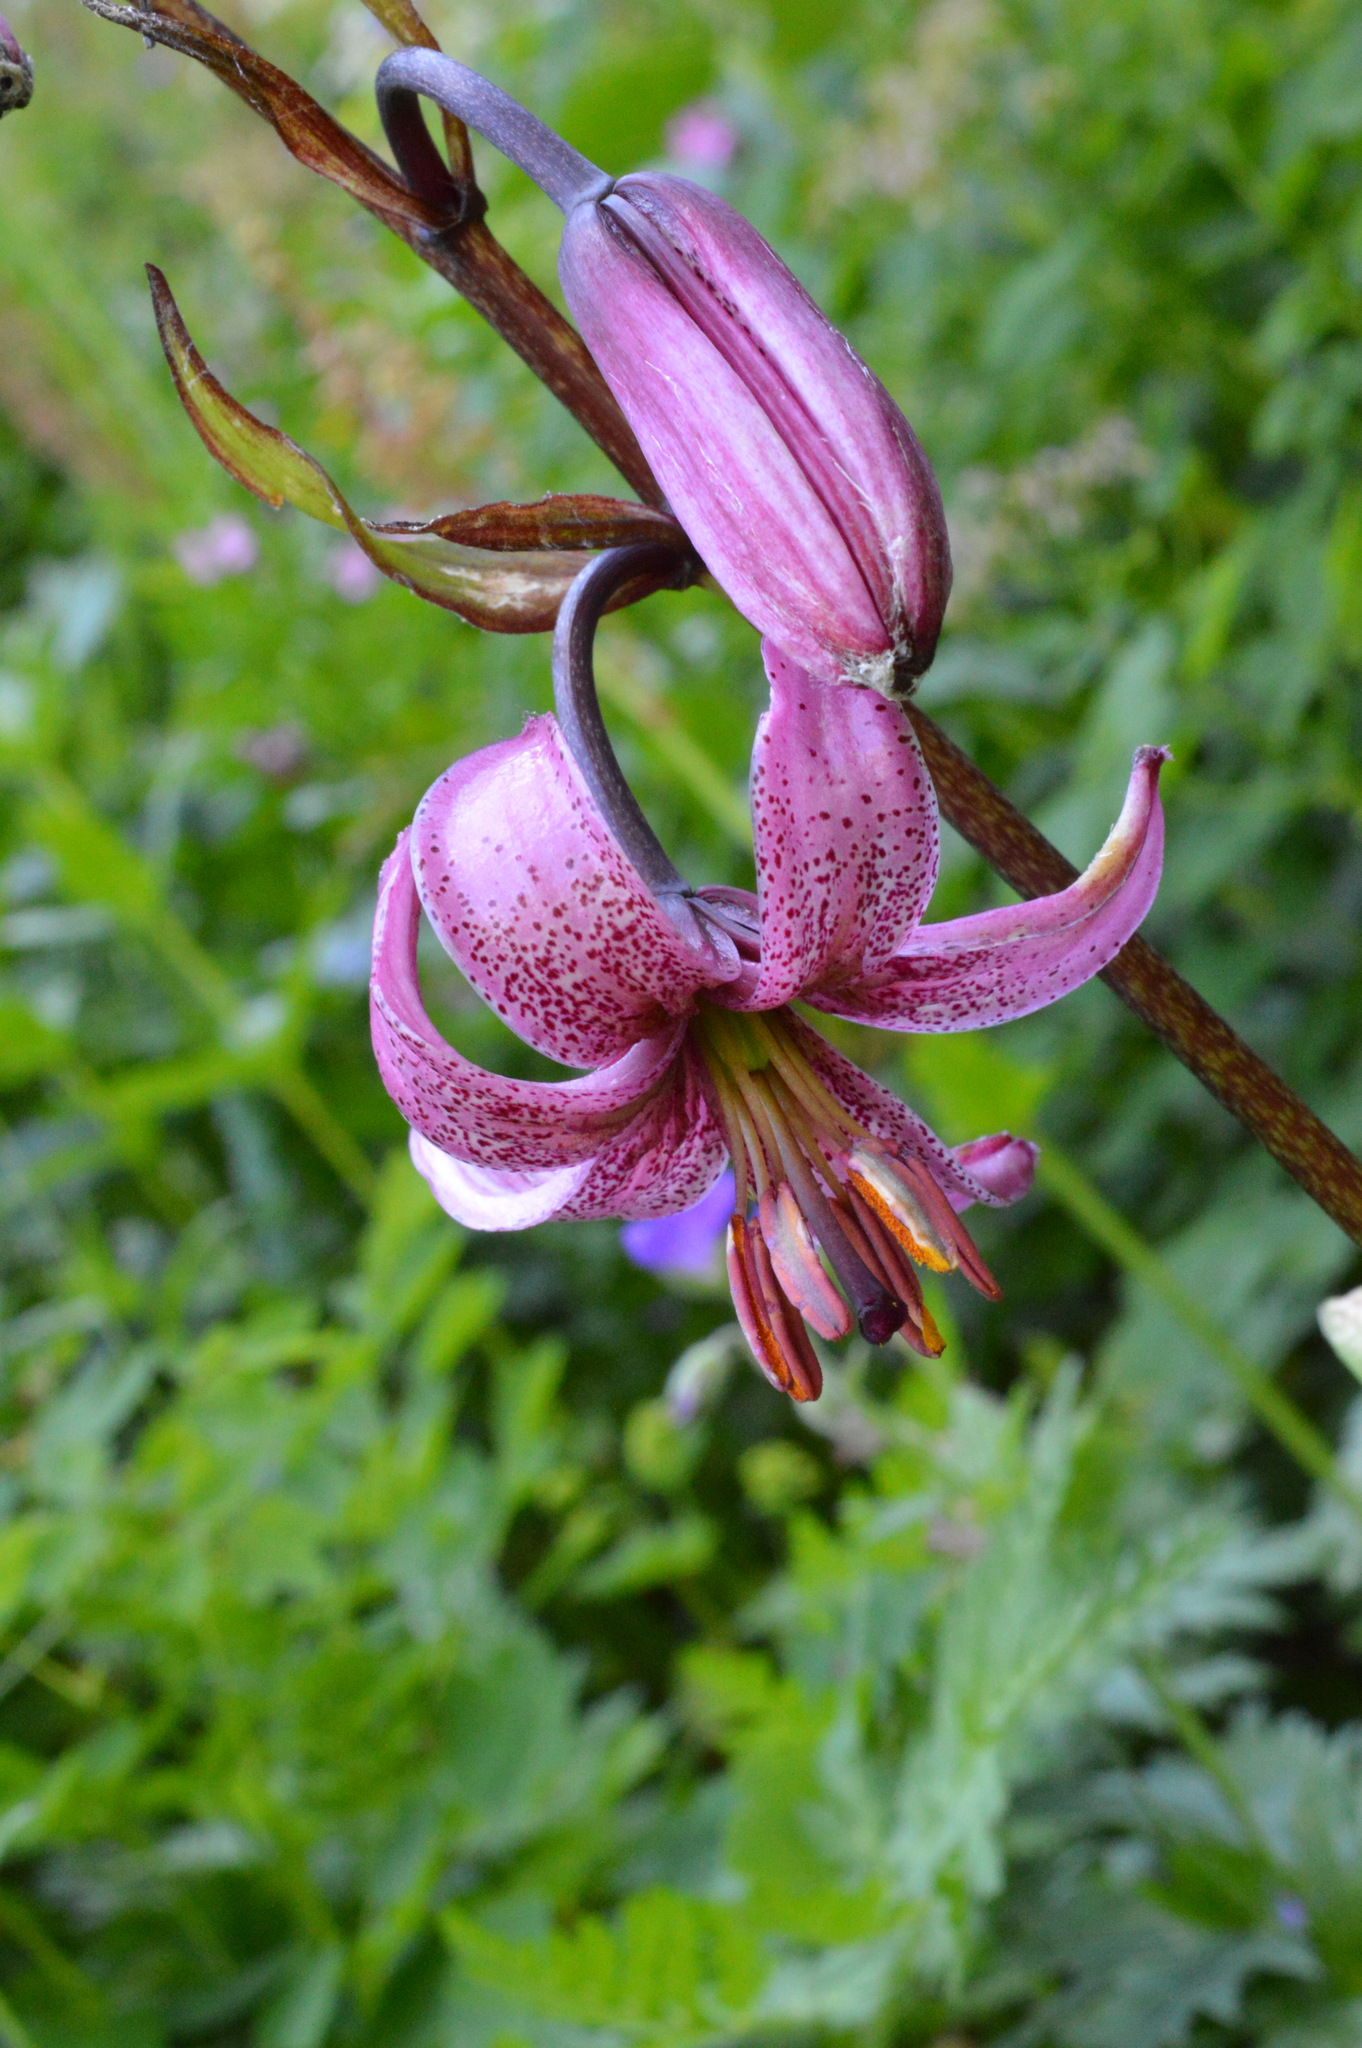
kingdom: Plantae
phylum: Tracheophyta
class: Liliopsida
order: Liliales
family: Liliaceae
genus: Lilium
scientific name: Lilium martagon
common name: Martagon lily
